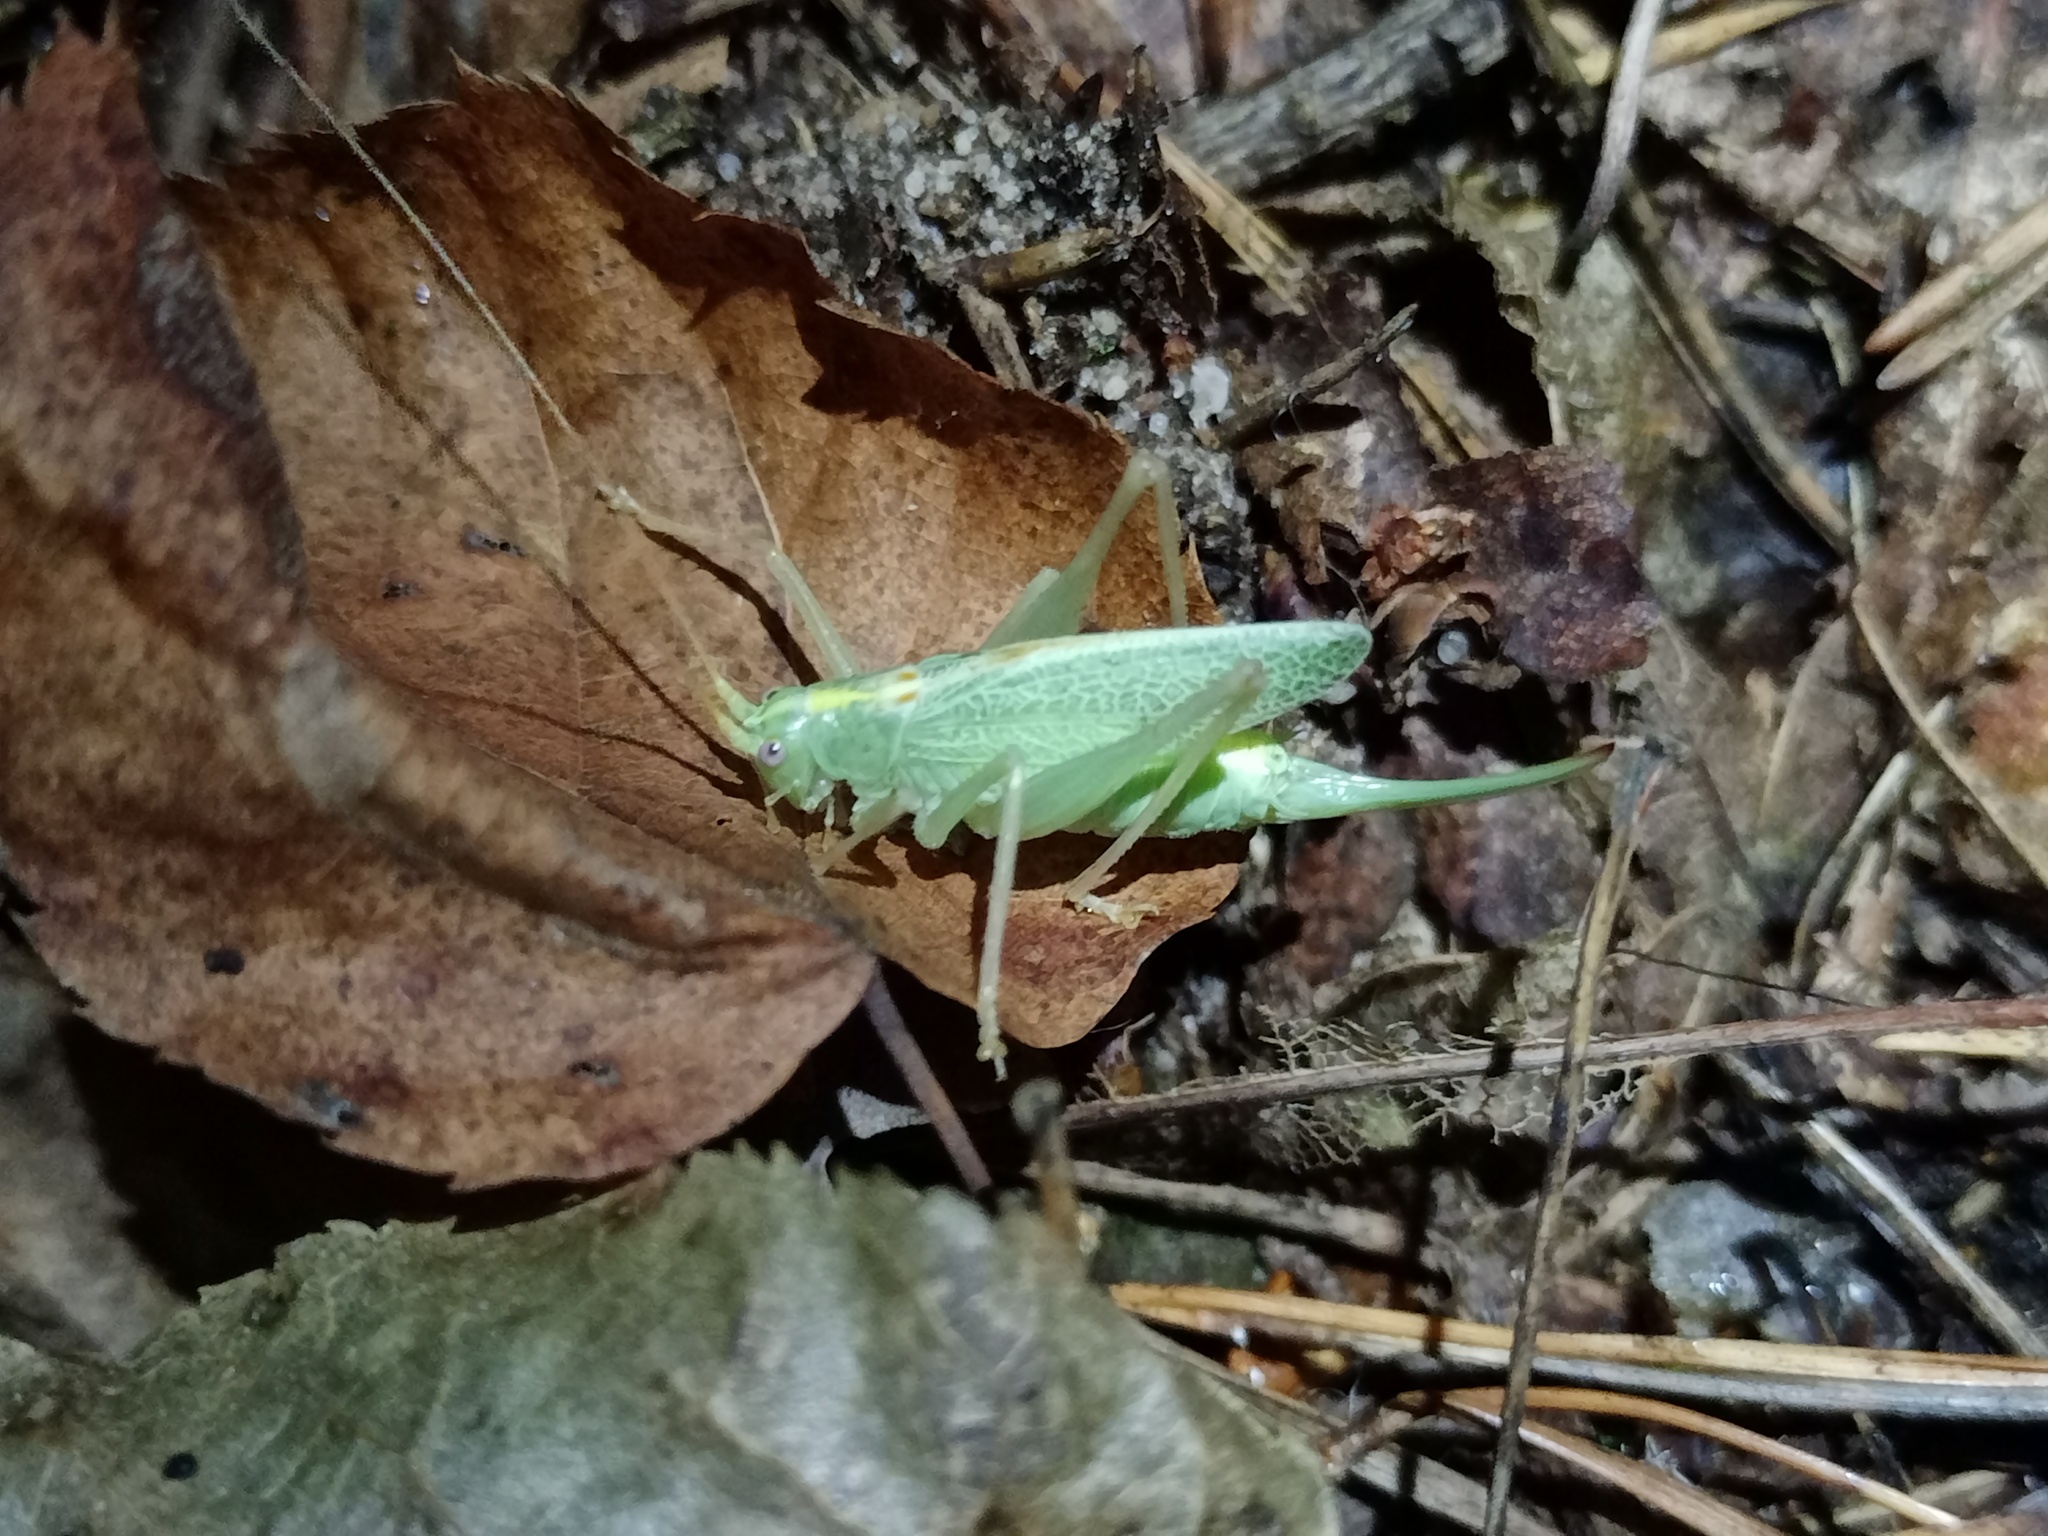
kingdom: Animalia
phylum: Arthropoda
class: Insecta
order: Orthoptera
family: Tettigoniidae
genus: Meconema
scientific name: Meconema thalassinum
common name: Oak bush-cricket
